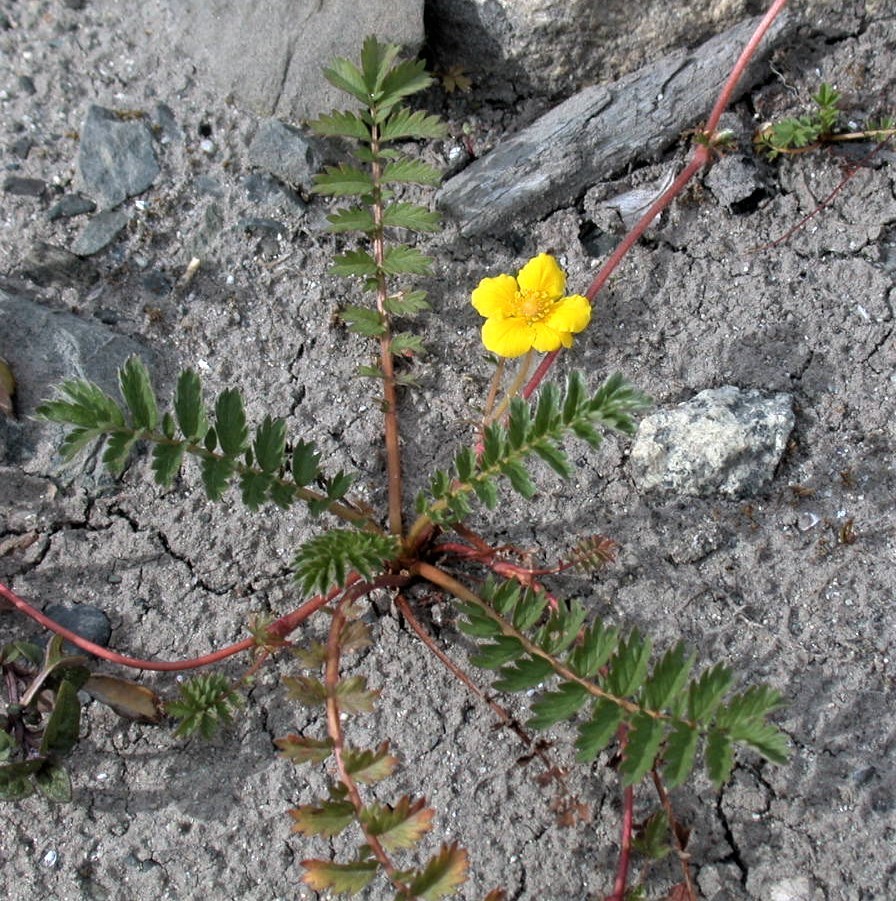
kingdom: Plantae
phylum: Tracheophyta
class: Magnoliopsida
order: Rosales
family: Rosaceae
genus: Argentina
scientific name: Argentina anserina
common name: Common silverweed
